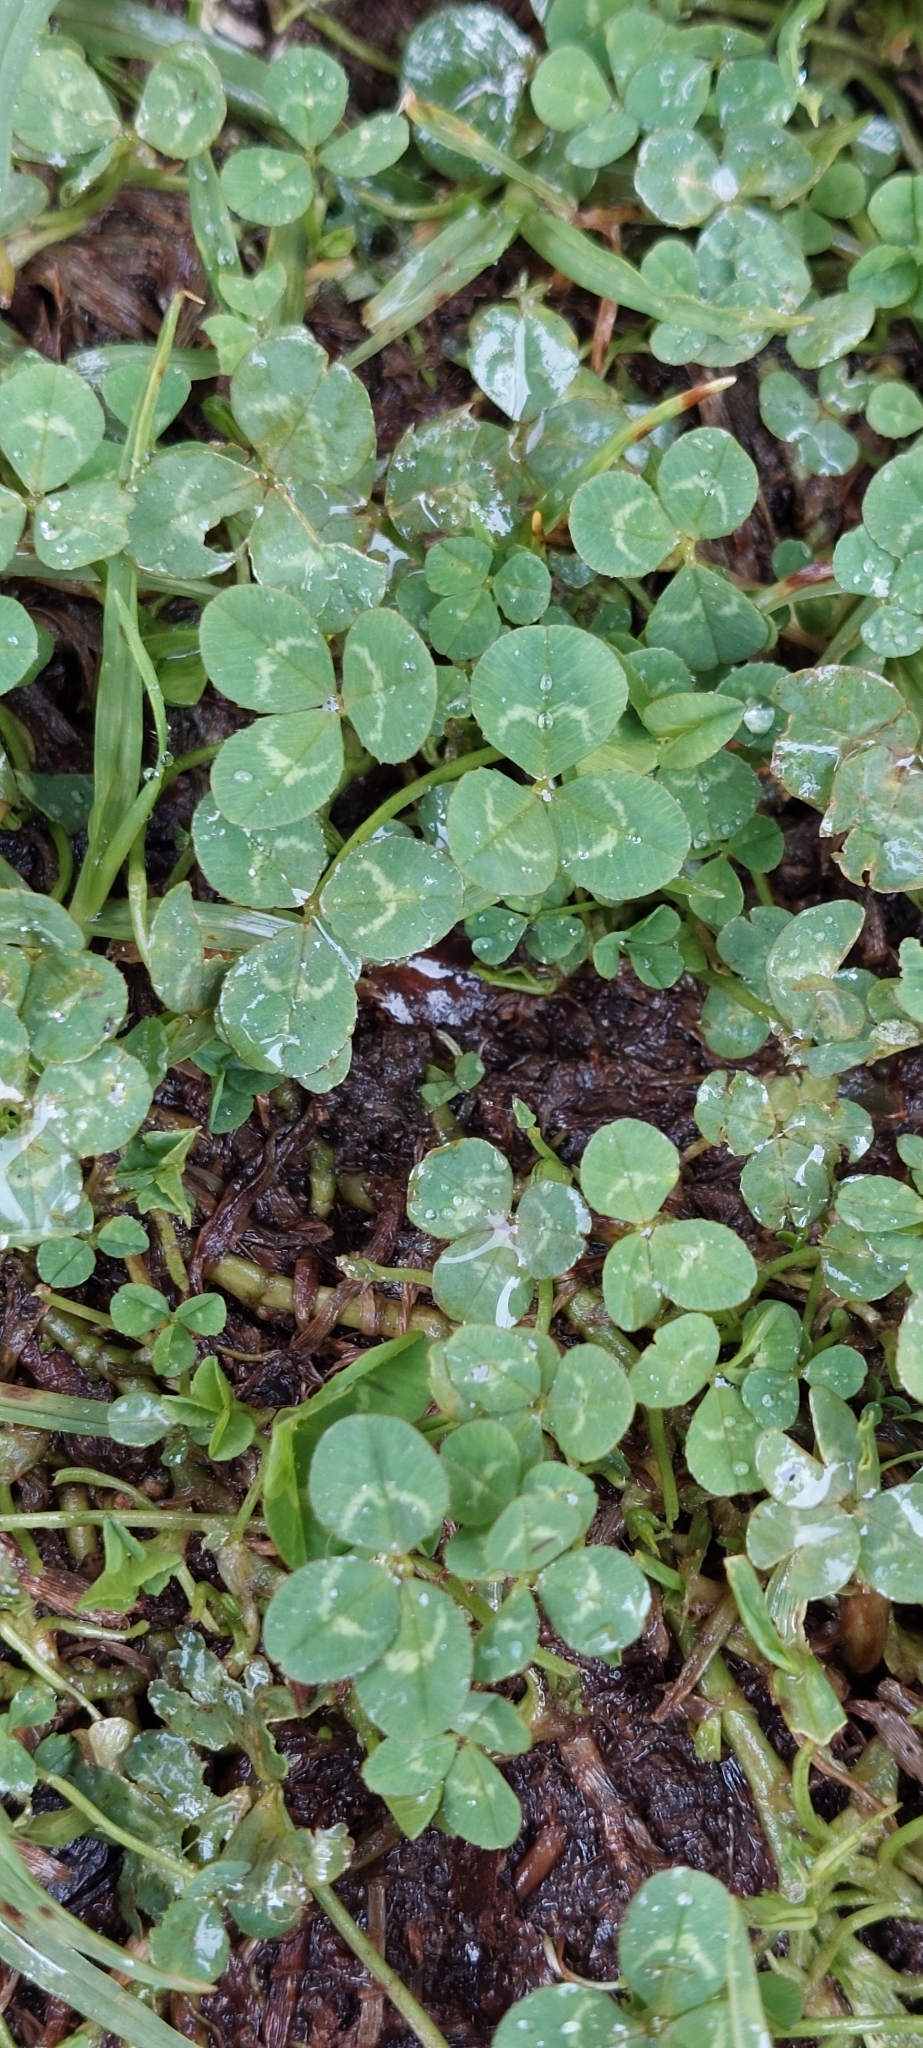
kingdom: Plantae
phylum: Tracheophyta
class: Magnoliopsida
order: Fabales
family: Fabaceae
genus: Trifolium
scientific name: Trifolium repens
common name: White clover
